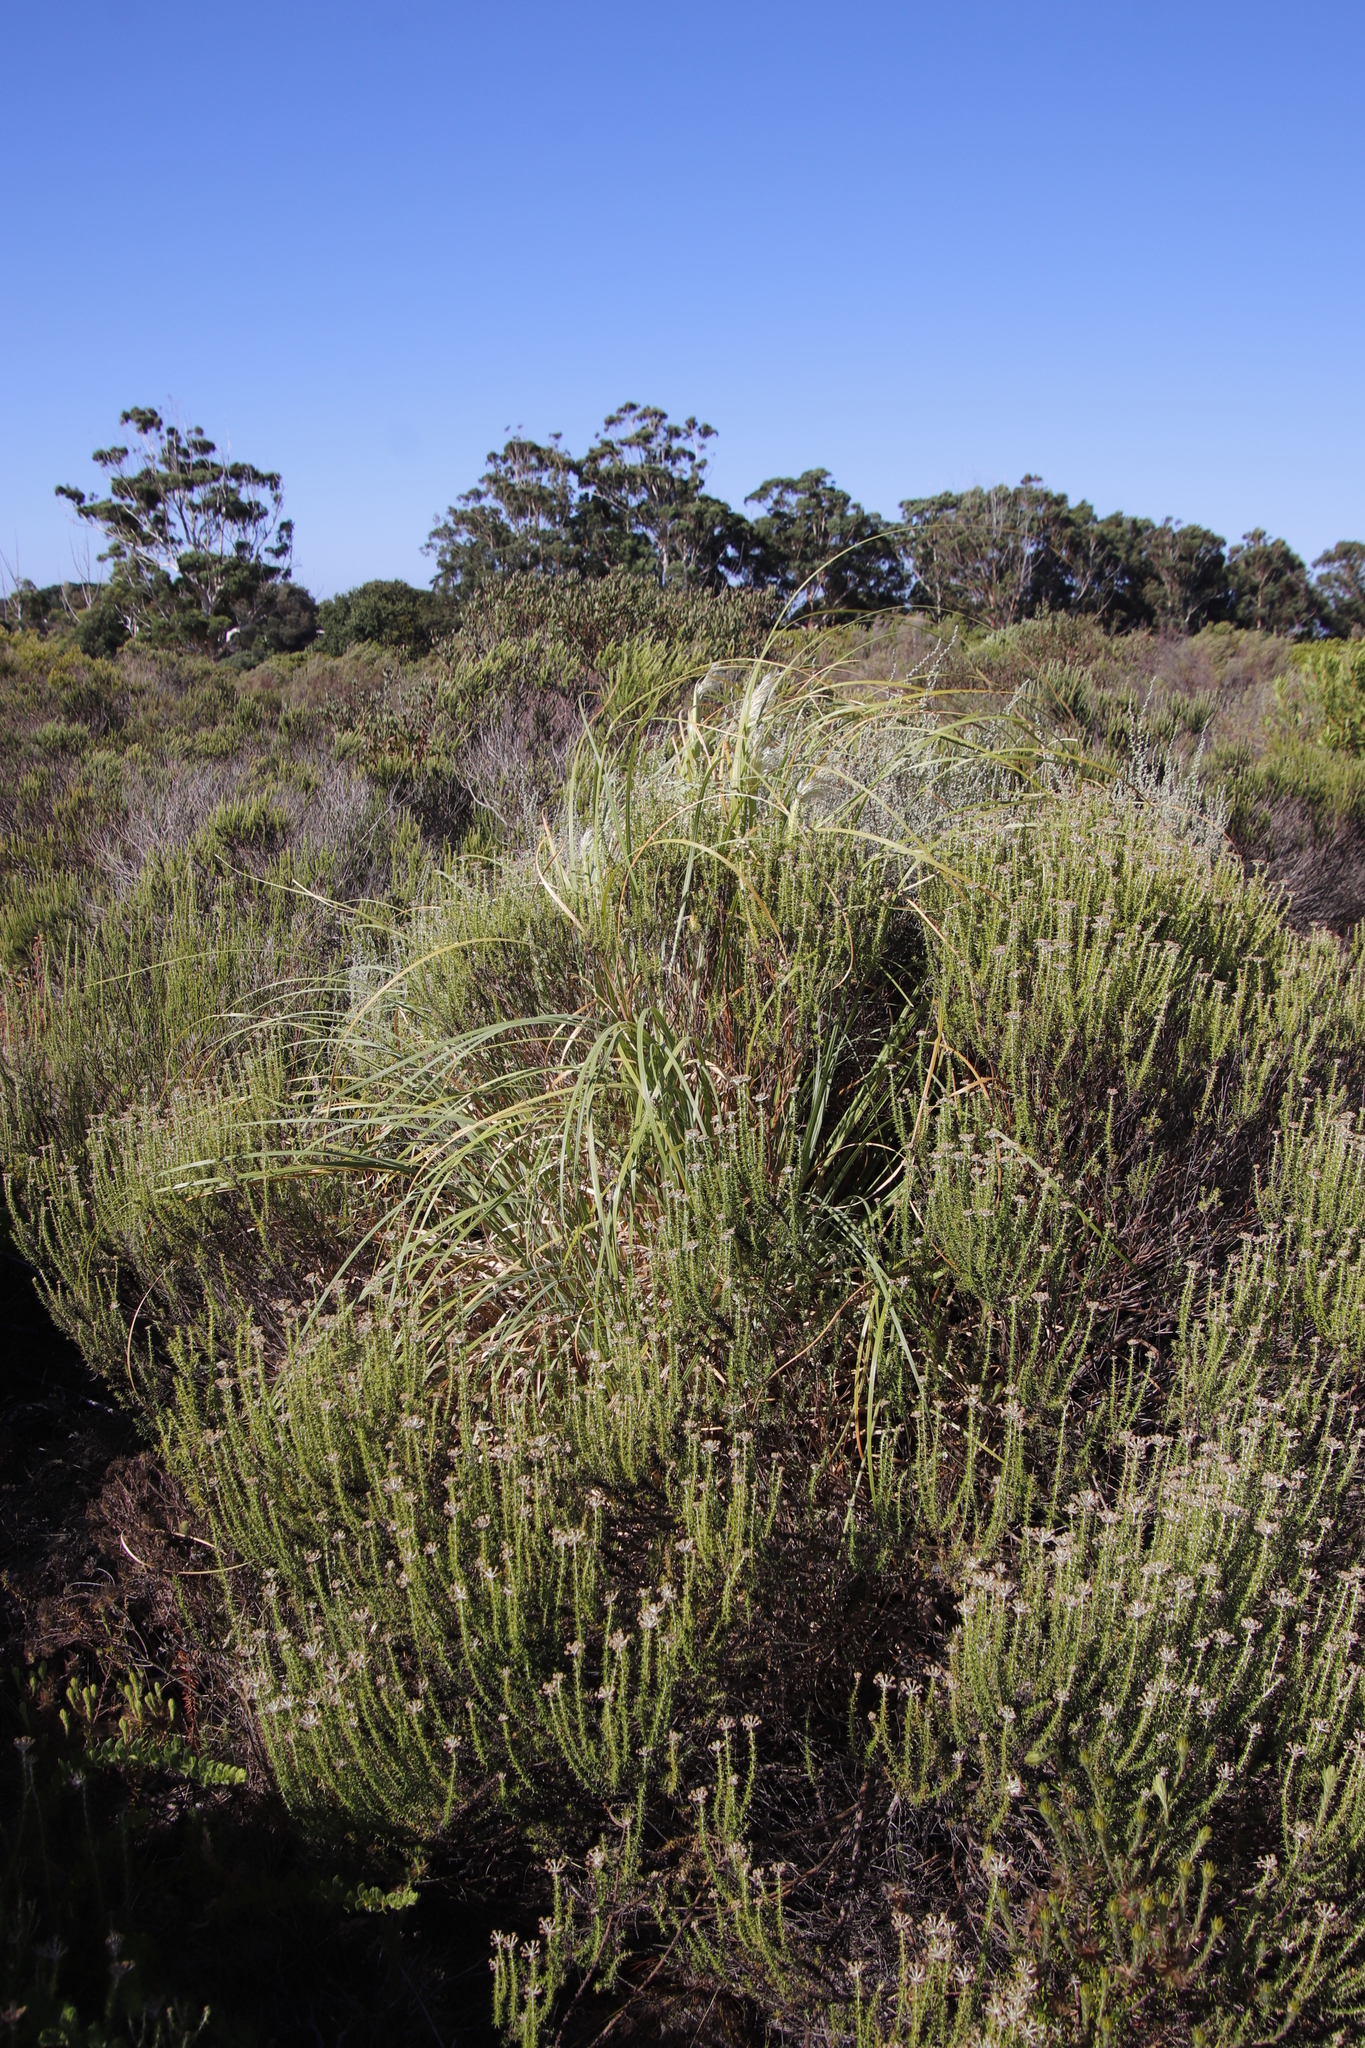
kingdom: Plantae
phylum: Tracheophyta
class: Liliopsida
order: Poales
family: Poaceae
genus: Cortaderia
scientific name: Cortaderia selloana
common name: Uruguayan pampas grass
